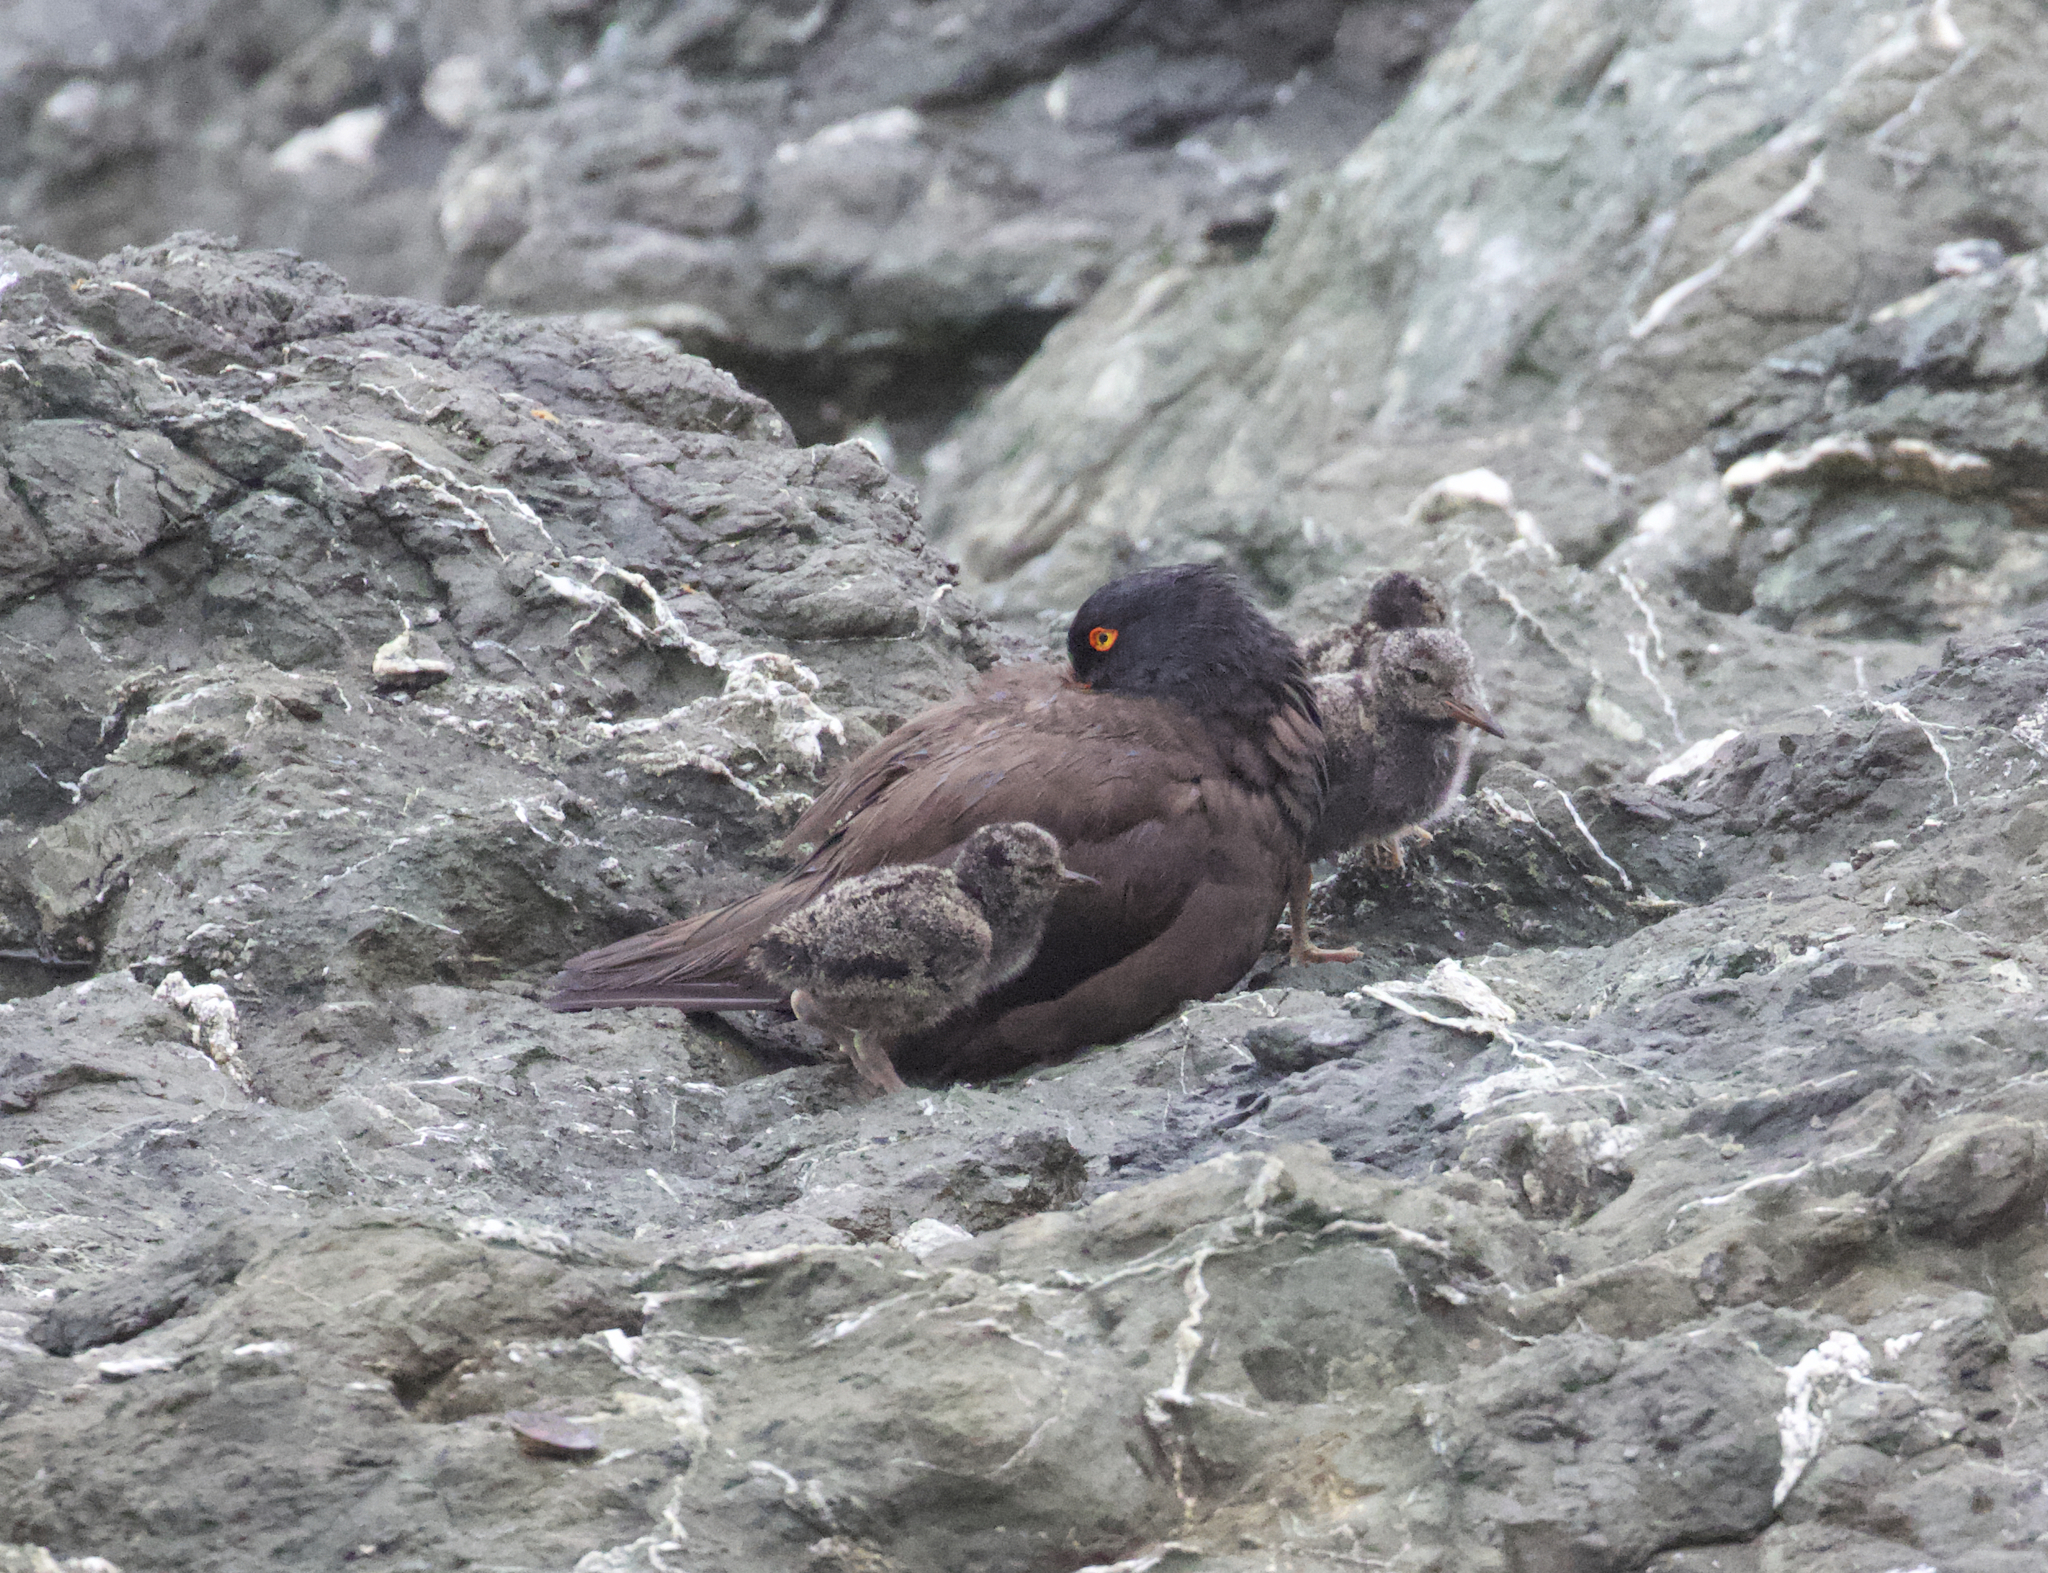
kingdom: Animalia
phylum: Chordata
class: Aves
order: Charadriiformes
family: Haematopodidae
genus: Haematopus
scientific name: Haematopus bachmani
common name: Black oystercatcher
